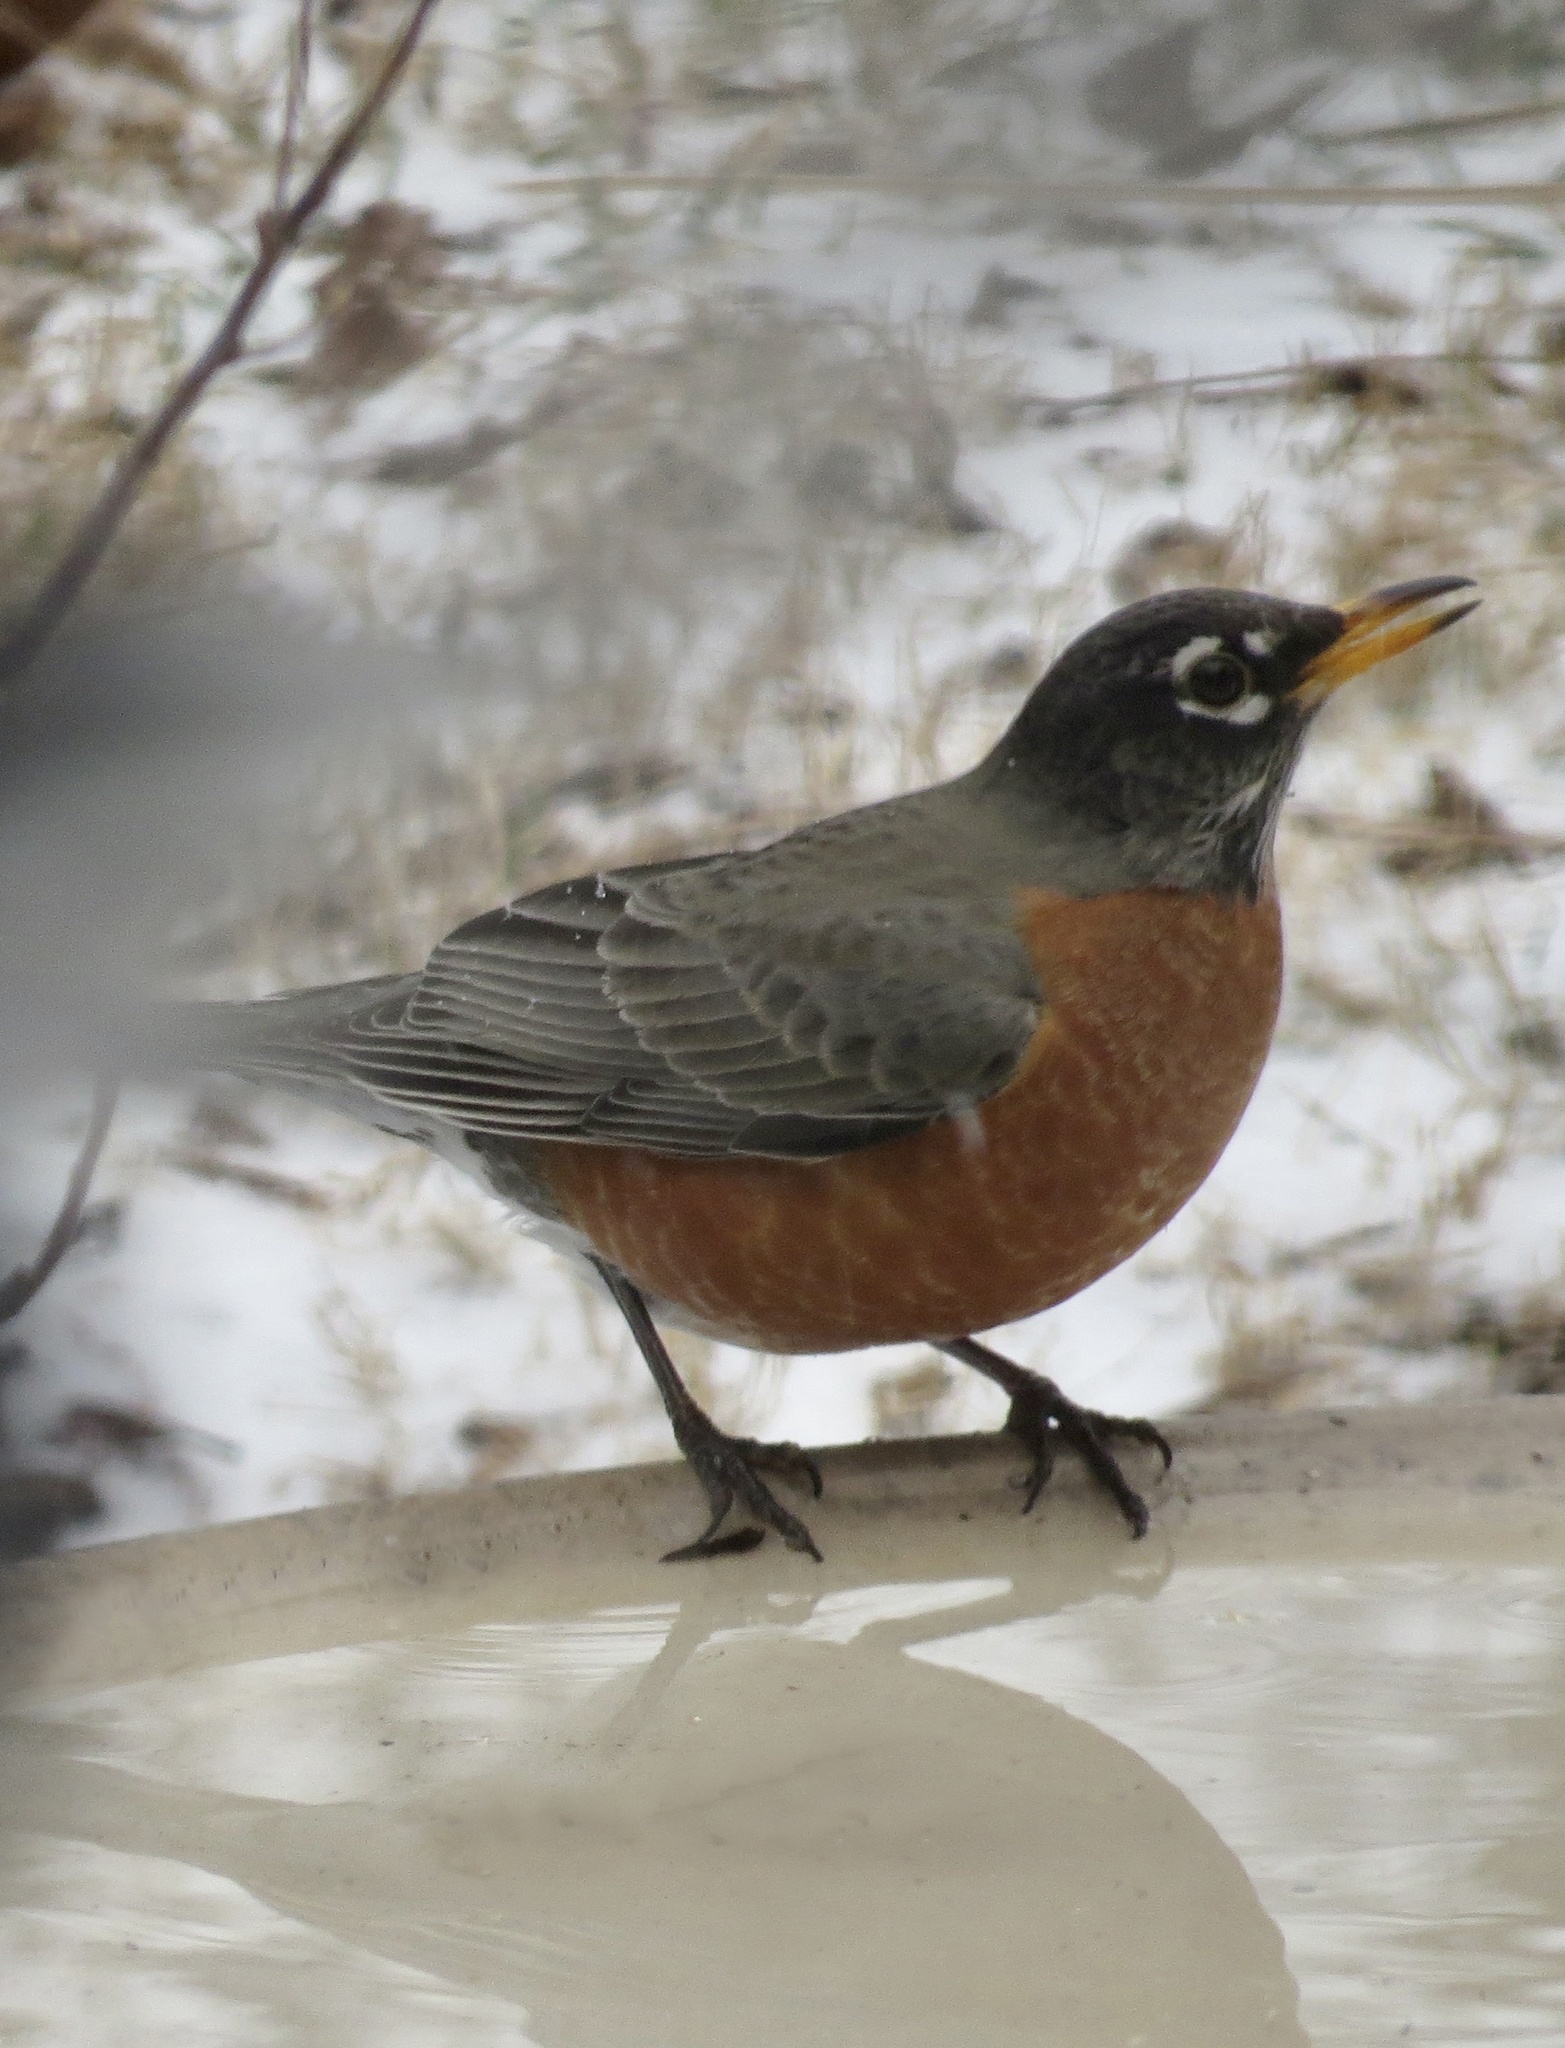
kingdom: Animalia
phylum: Chordata
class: Aves
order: Passeriformes
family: Turdidae
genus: Turdus
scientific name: Turdus migratorius
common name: American robin
